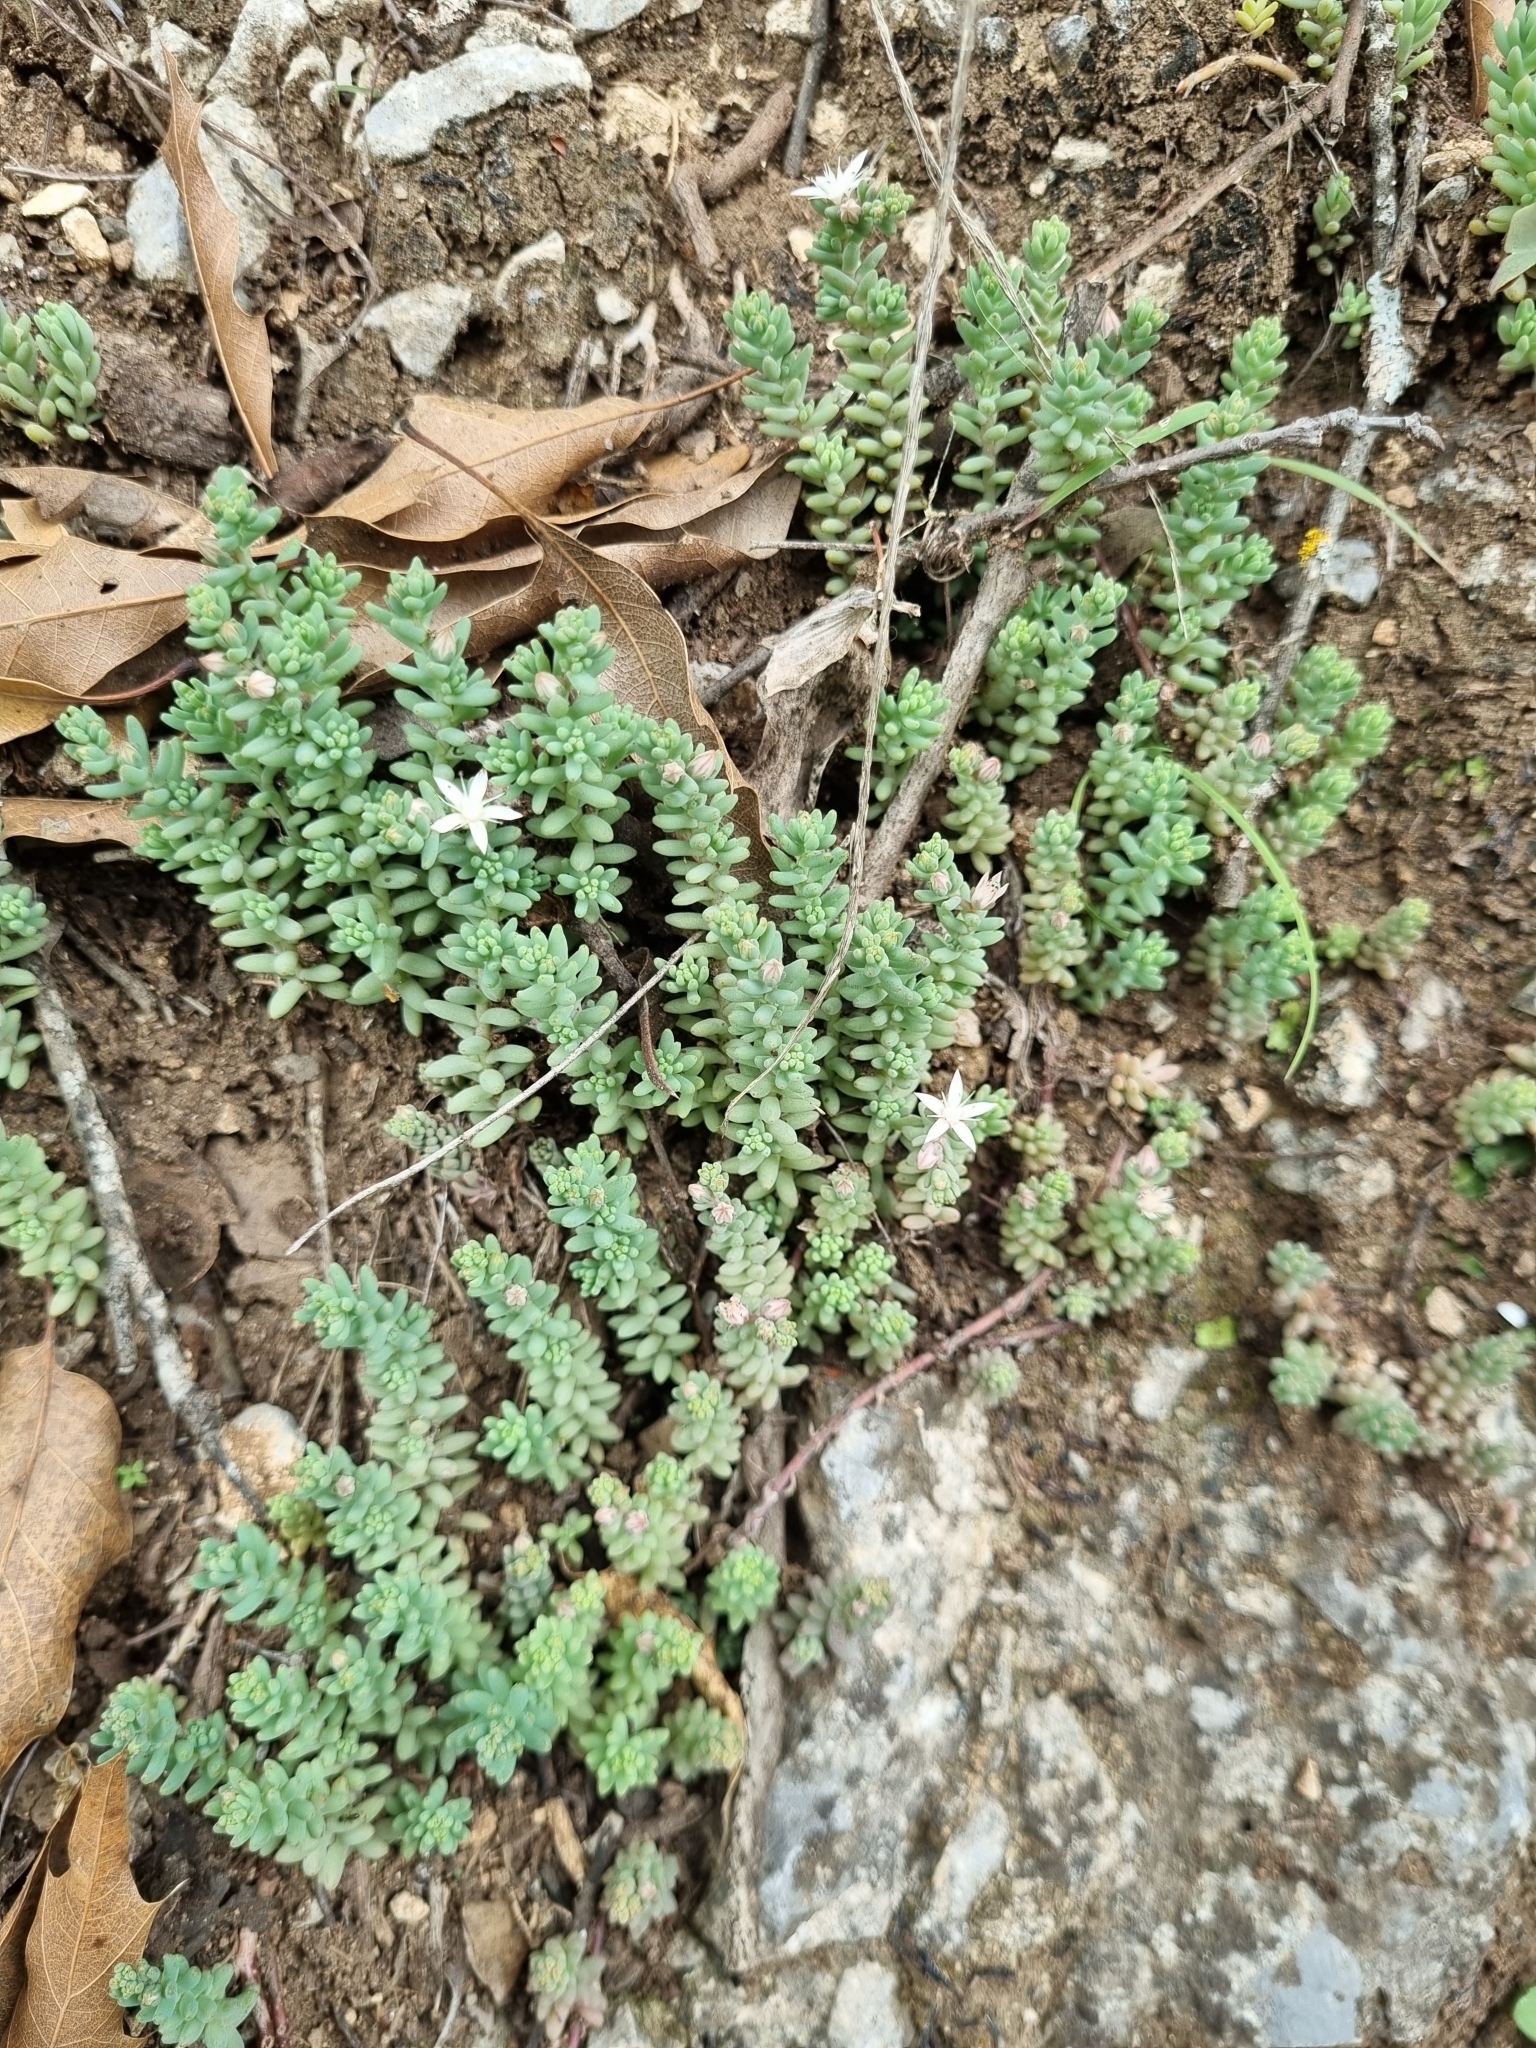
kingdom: Plantae
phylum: Tracheophyta
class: Magnoliopsida
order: Saxifragales
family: Crassulaceae
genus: Sedum
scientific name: Sedum potosinum
